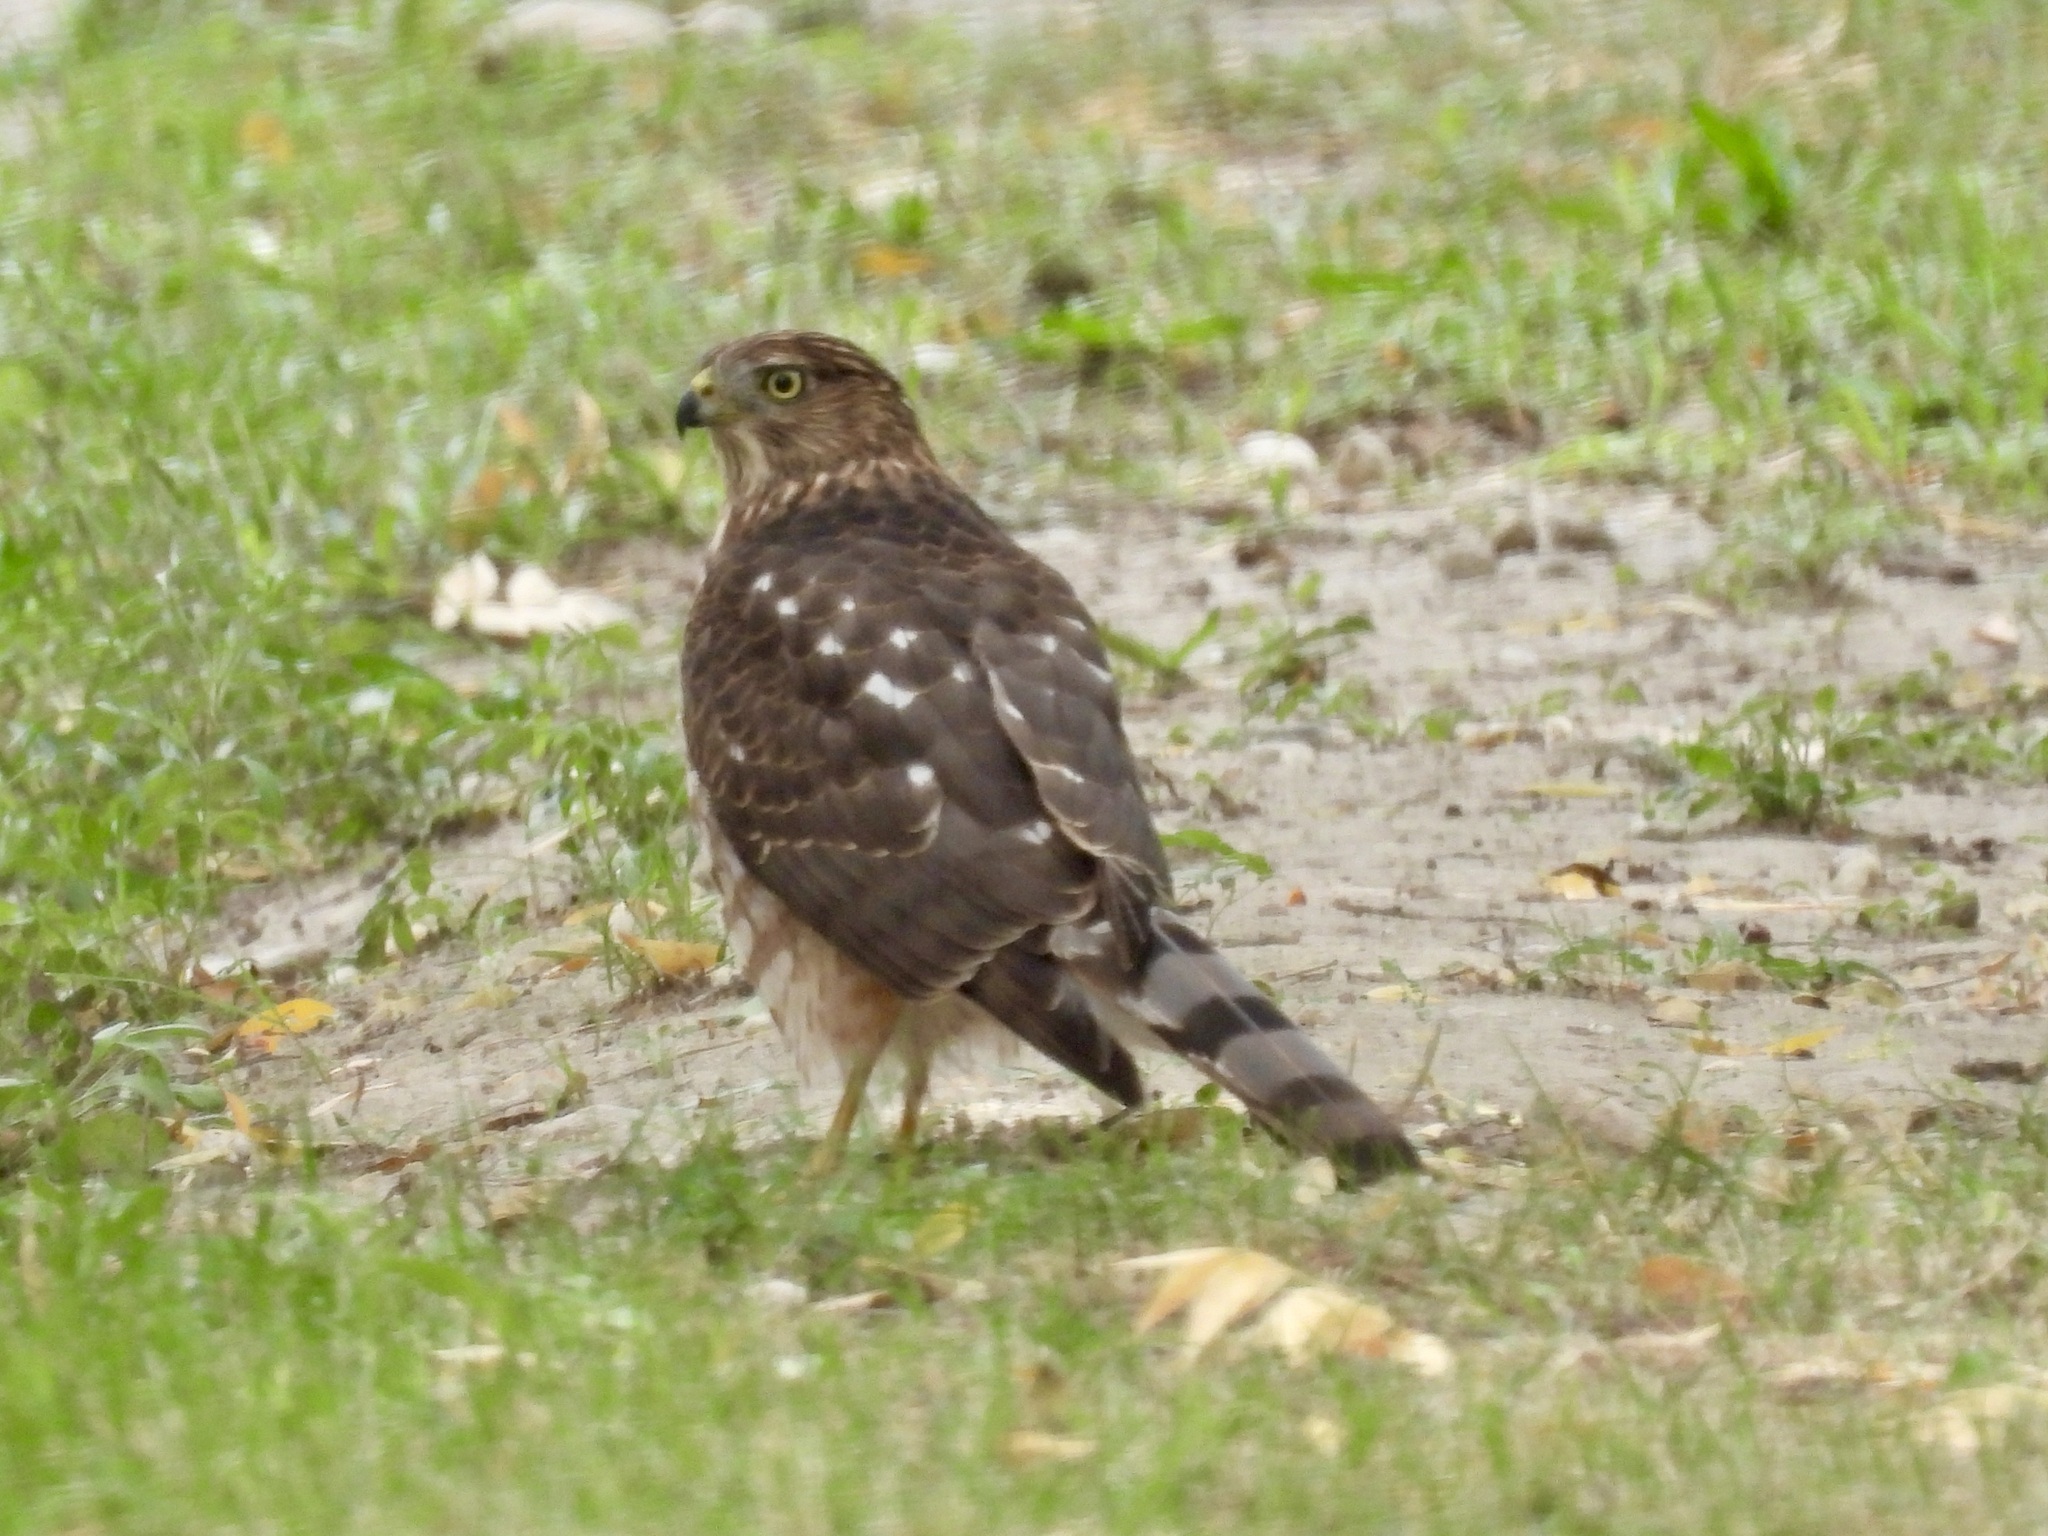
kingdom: Animalia
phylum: Chordata
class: Aves
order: Accipitriformes
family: Accipitridae
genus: Accipiter
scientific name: Accipiter cooperii
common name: Cooper's hawk
